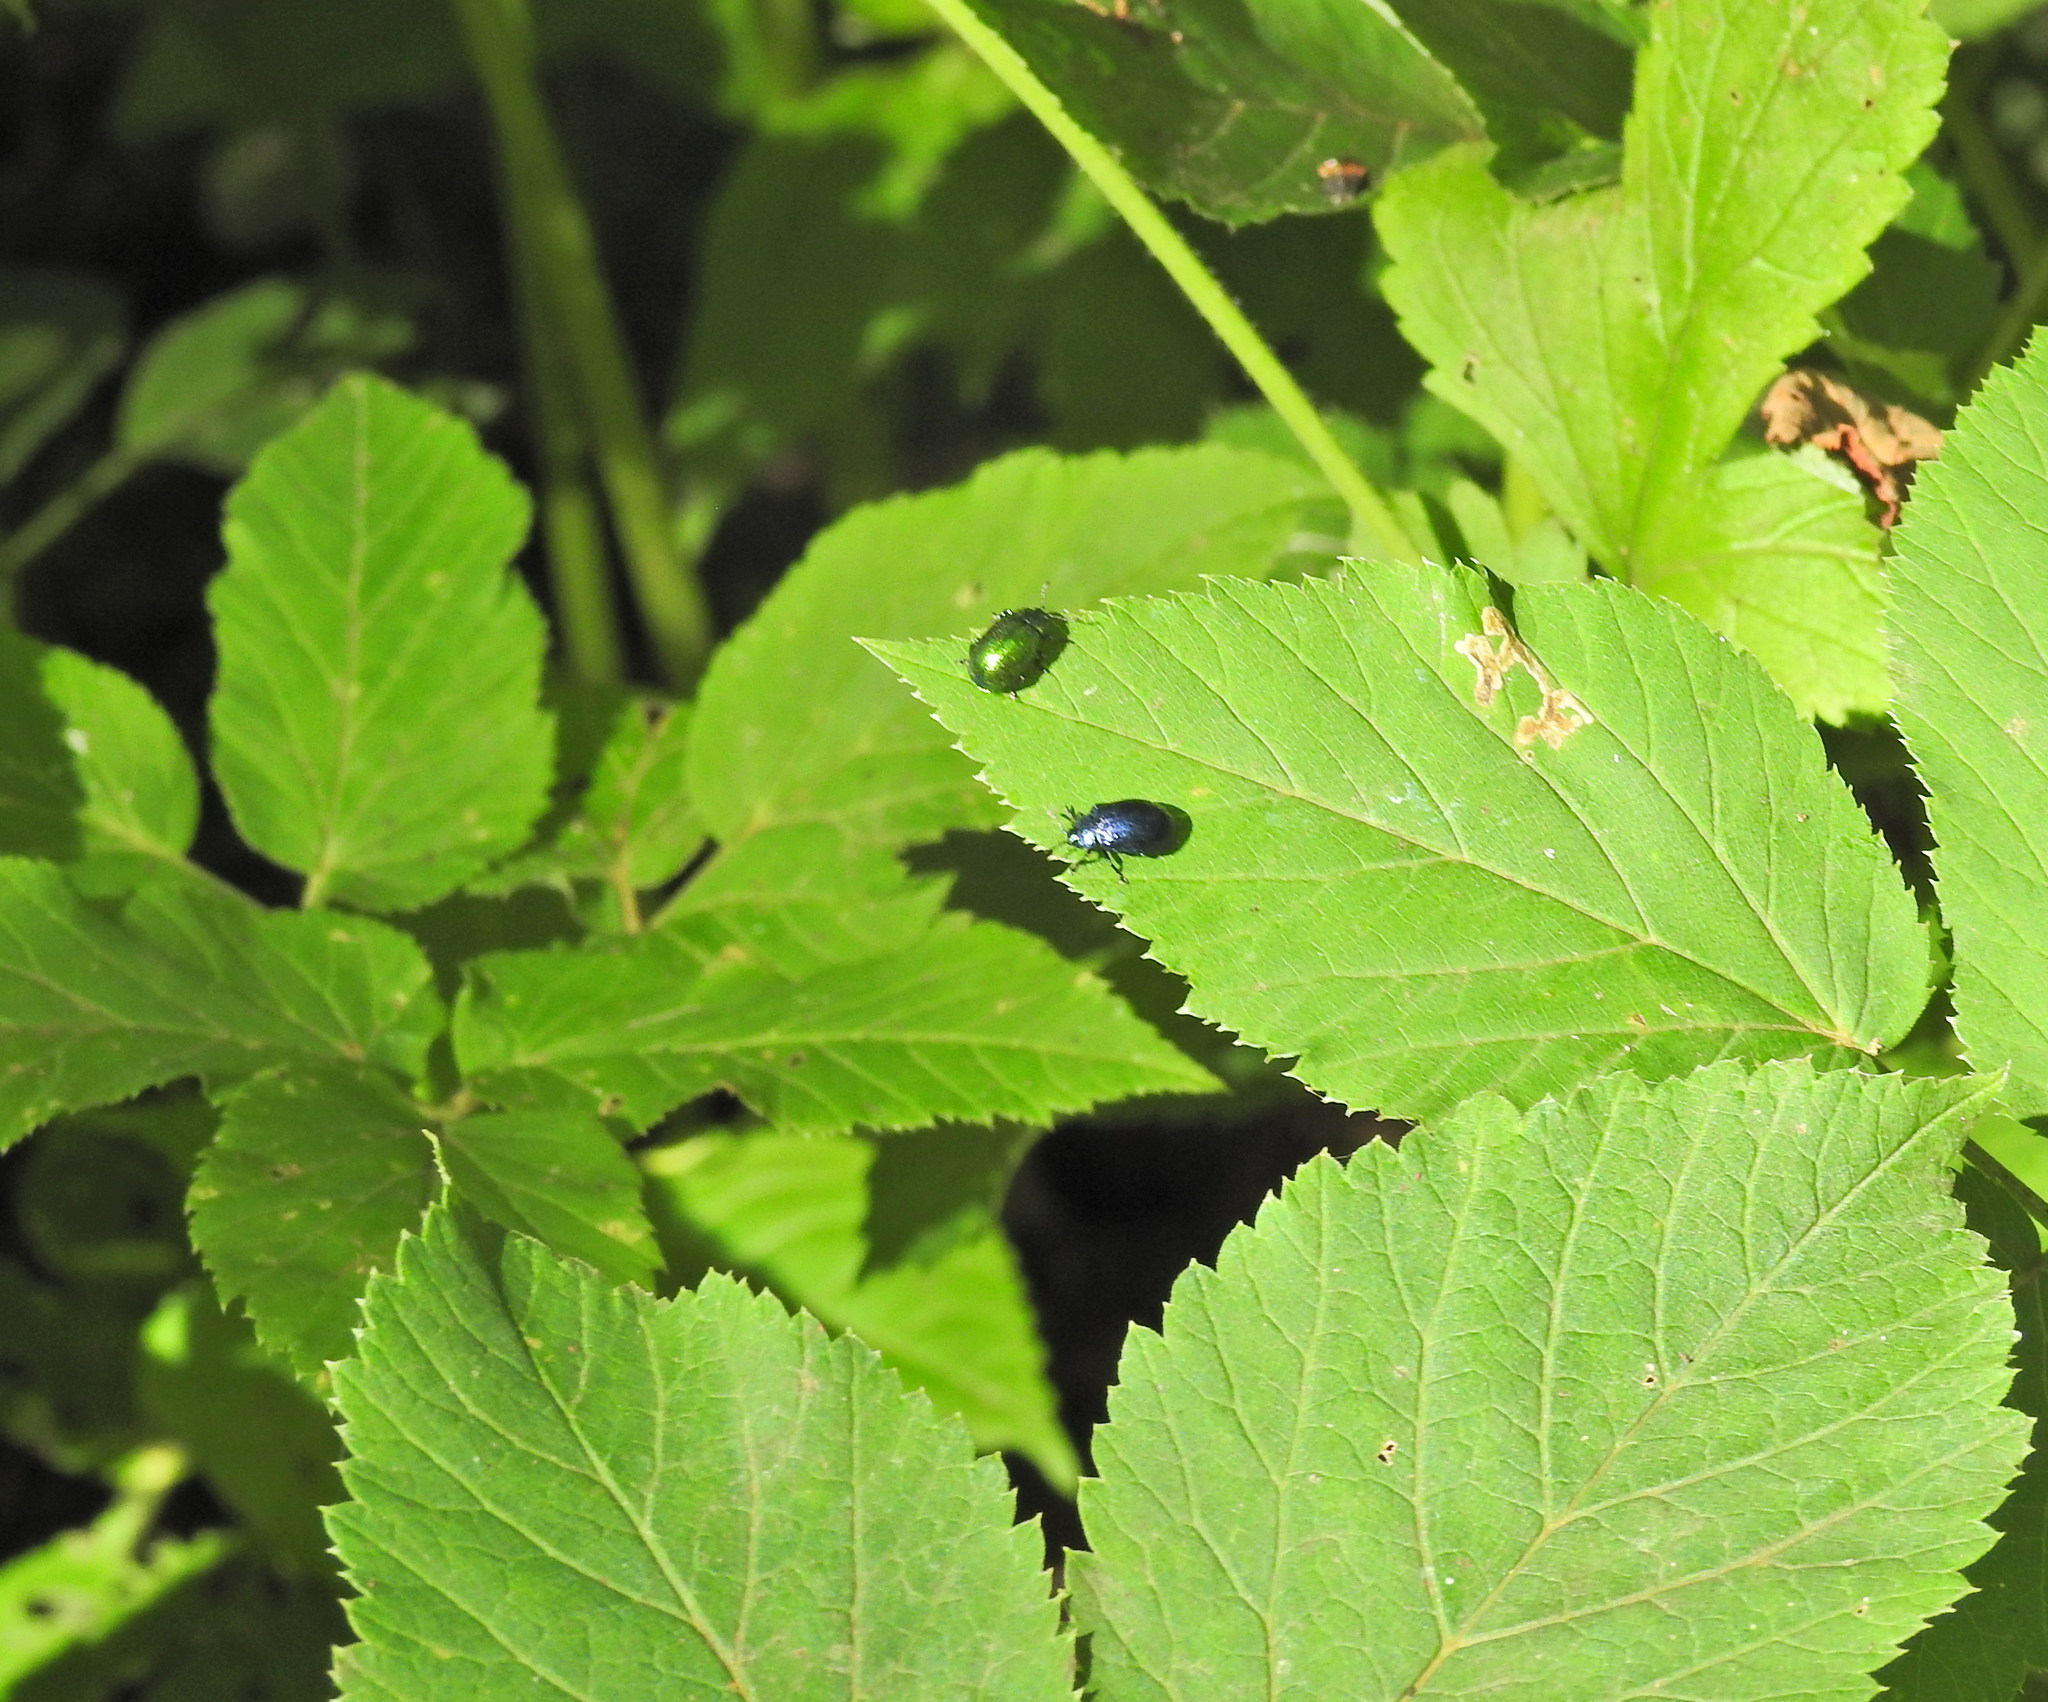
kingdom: Animalia
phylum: Arthropoda
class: Insecta
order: Coleoptera
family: Chrysomelidae
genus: Plagiosterna
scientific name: Plagiosterna aenea
